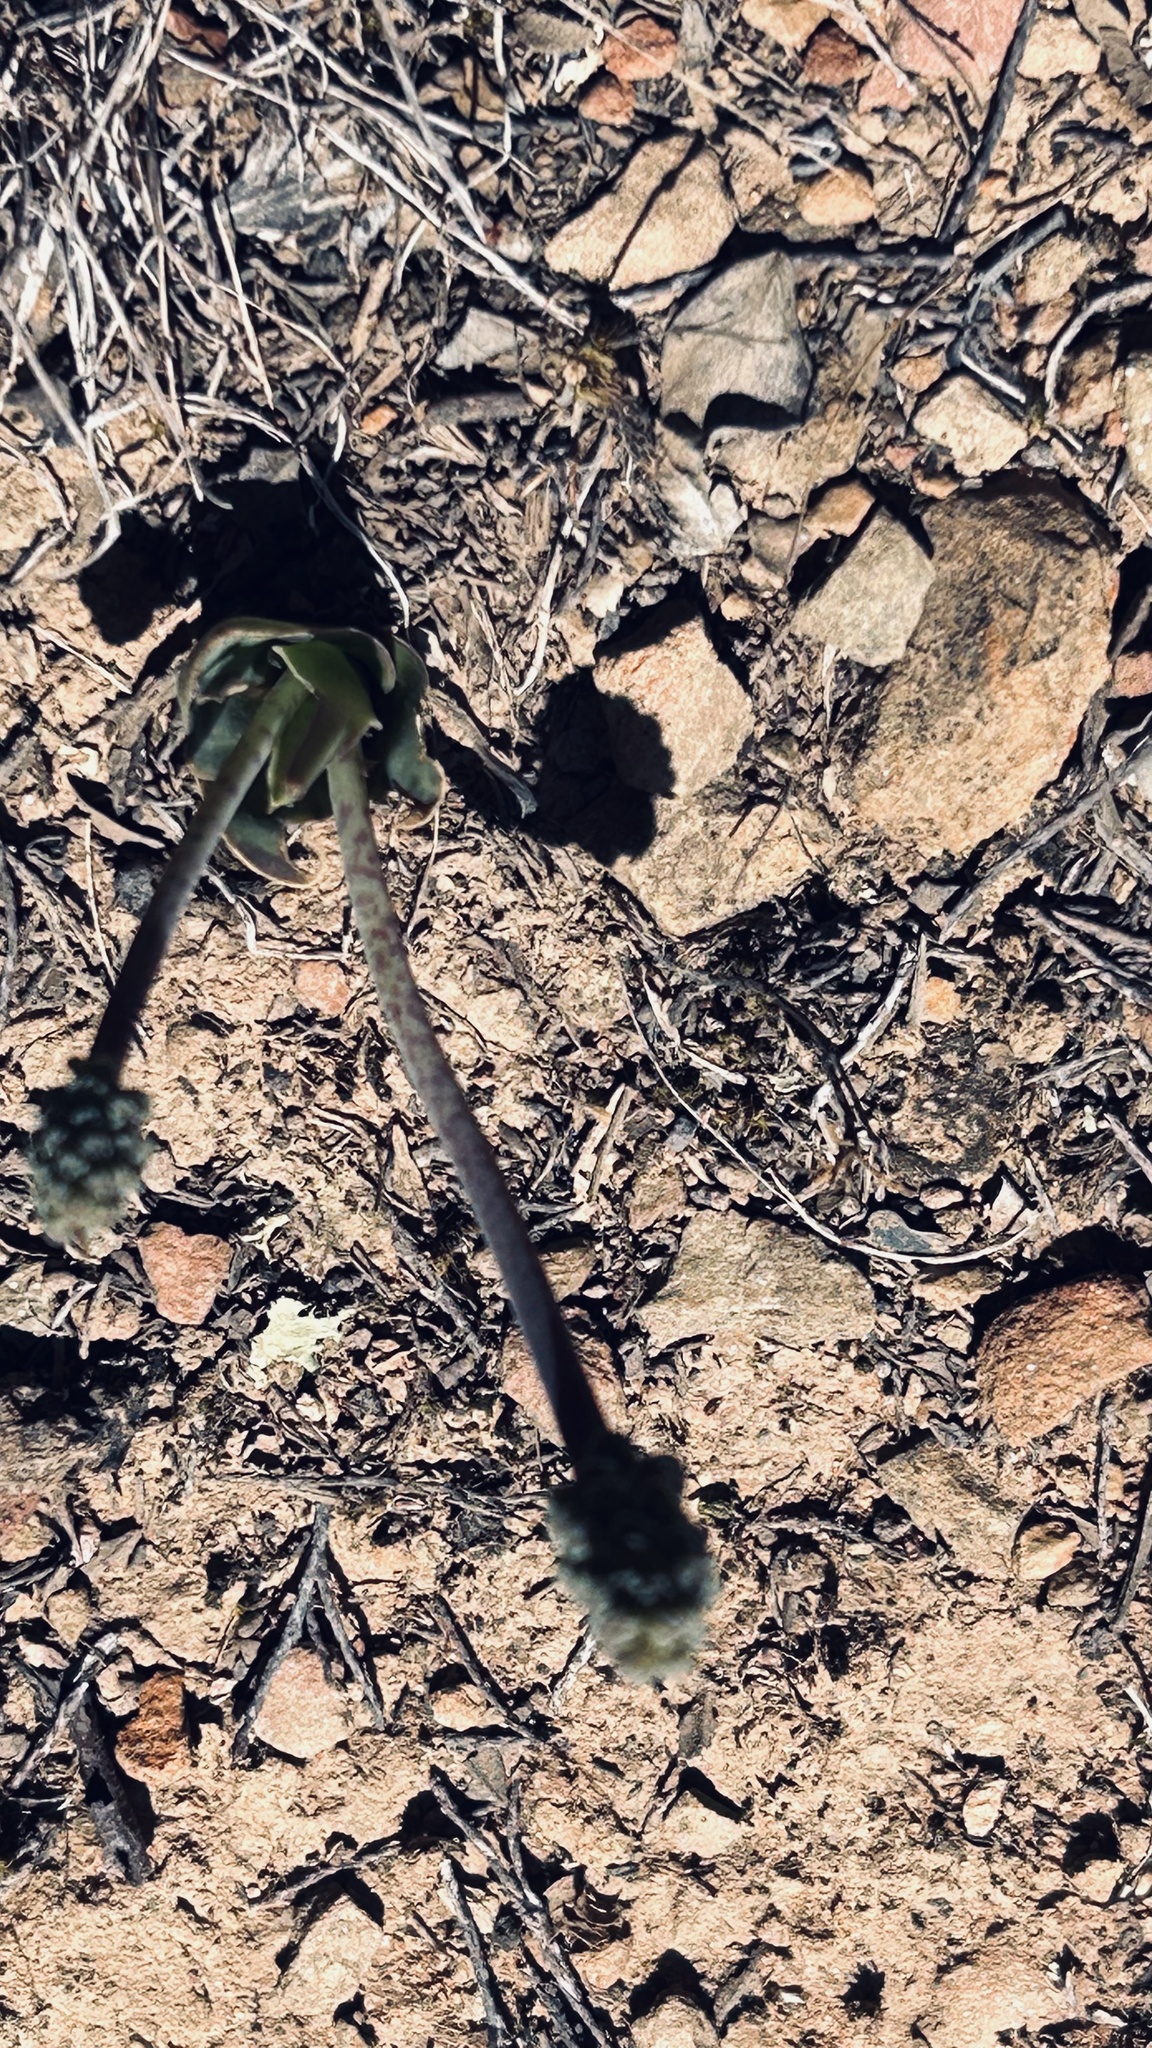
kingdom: Plantae
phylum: Tracheophyta
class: Liliopsida
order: Asparagales
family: Asparagaceae
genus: Ledebouria
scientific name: Ledebouria revoluta
